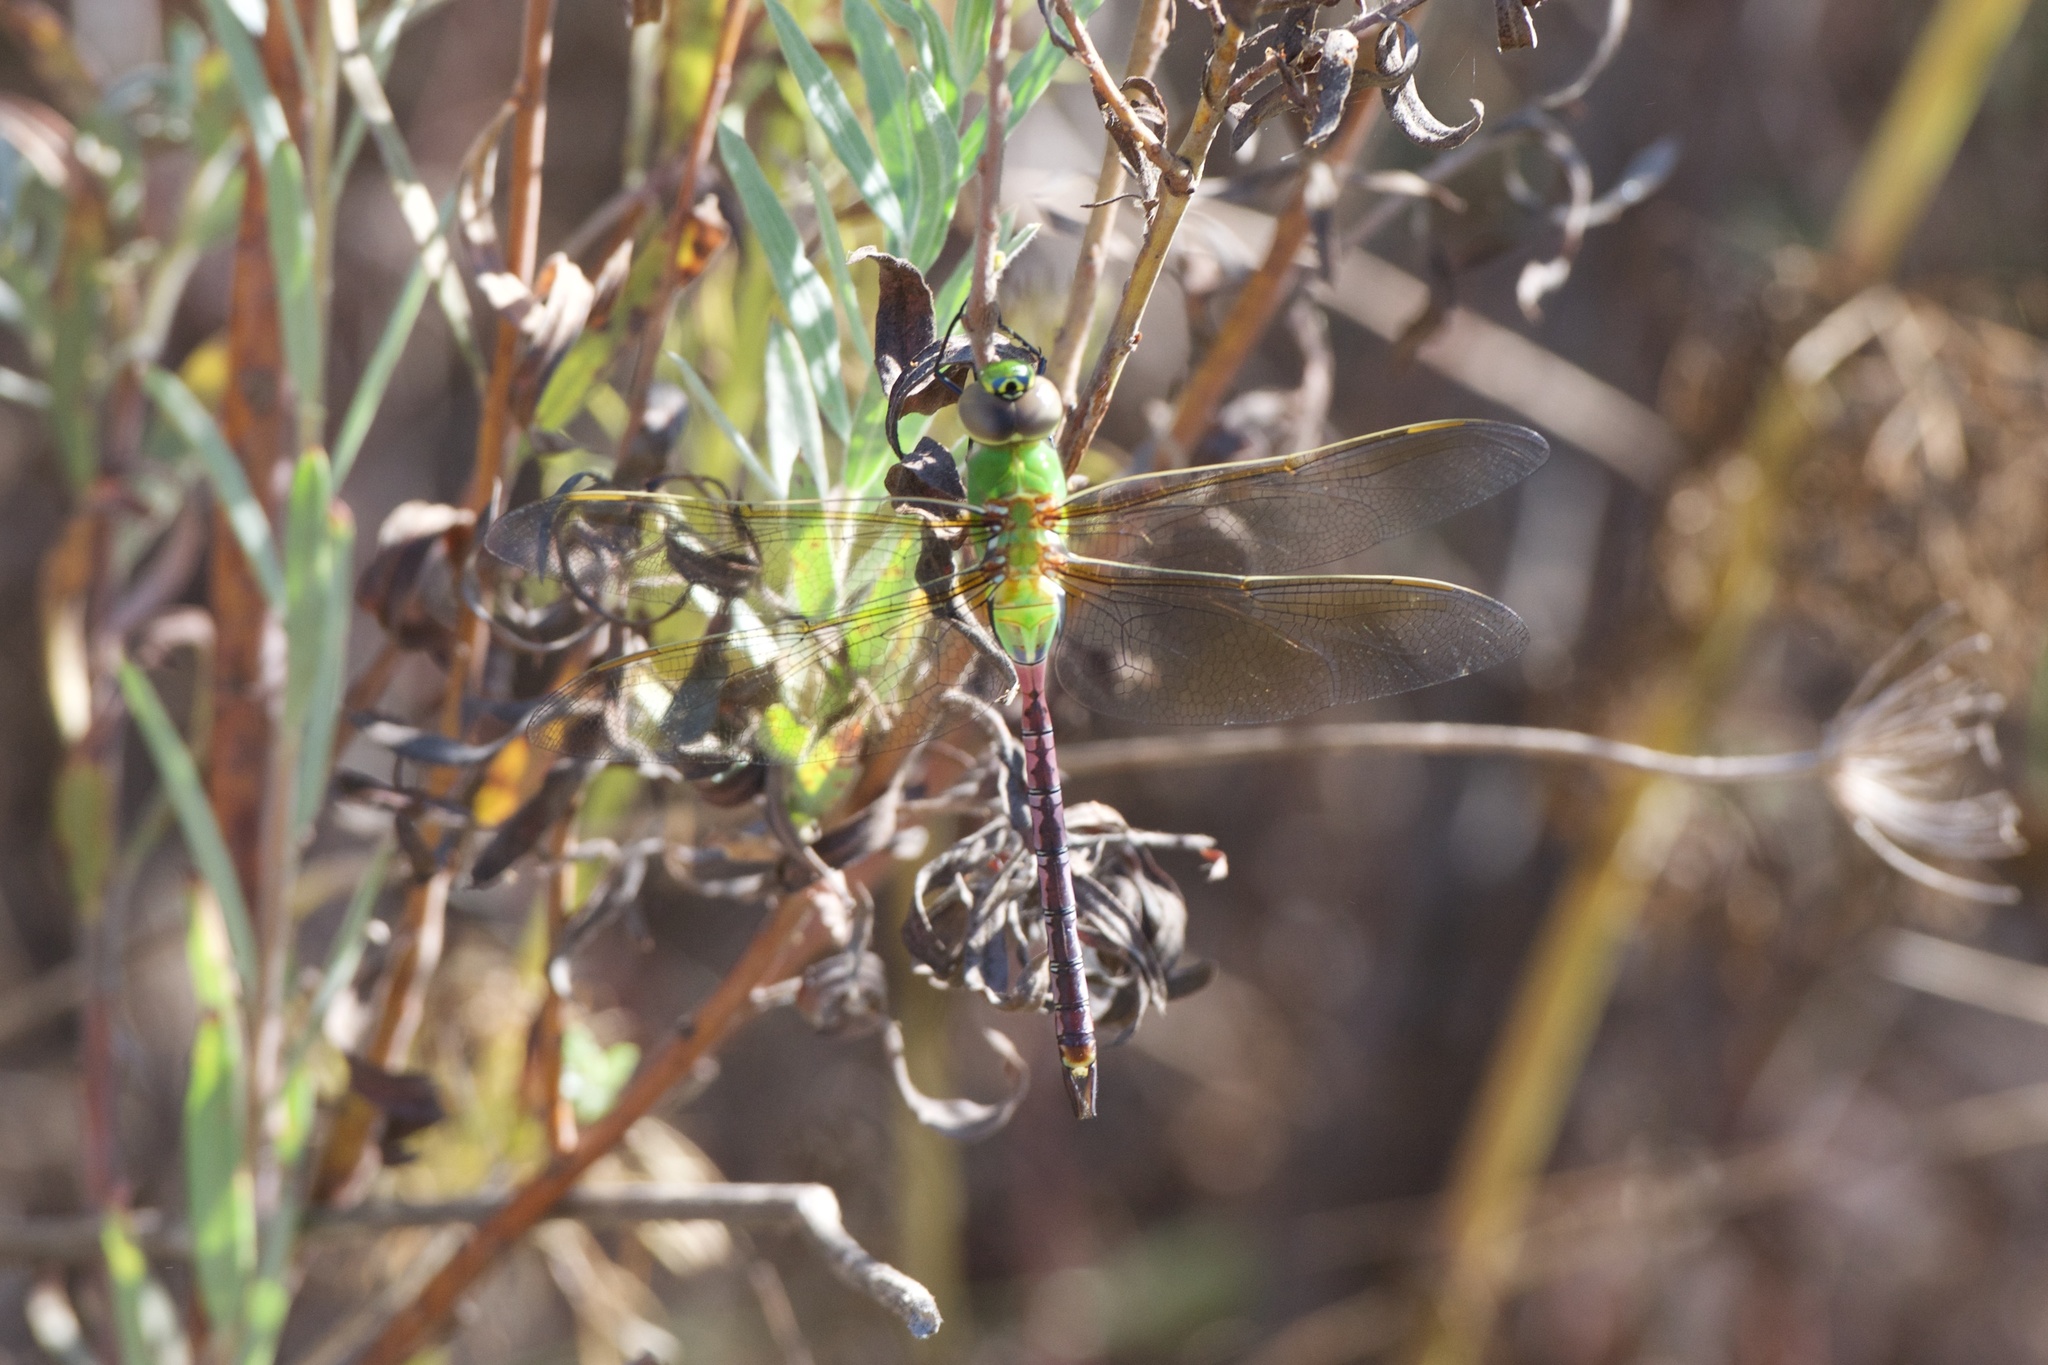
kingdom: Animalia
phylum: Arthropoda
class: Insecta
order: Odonata
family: Aeshnidae
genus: Anax
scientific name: Anax junius
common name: Common green darner
